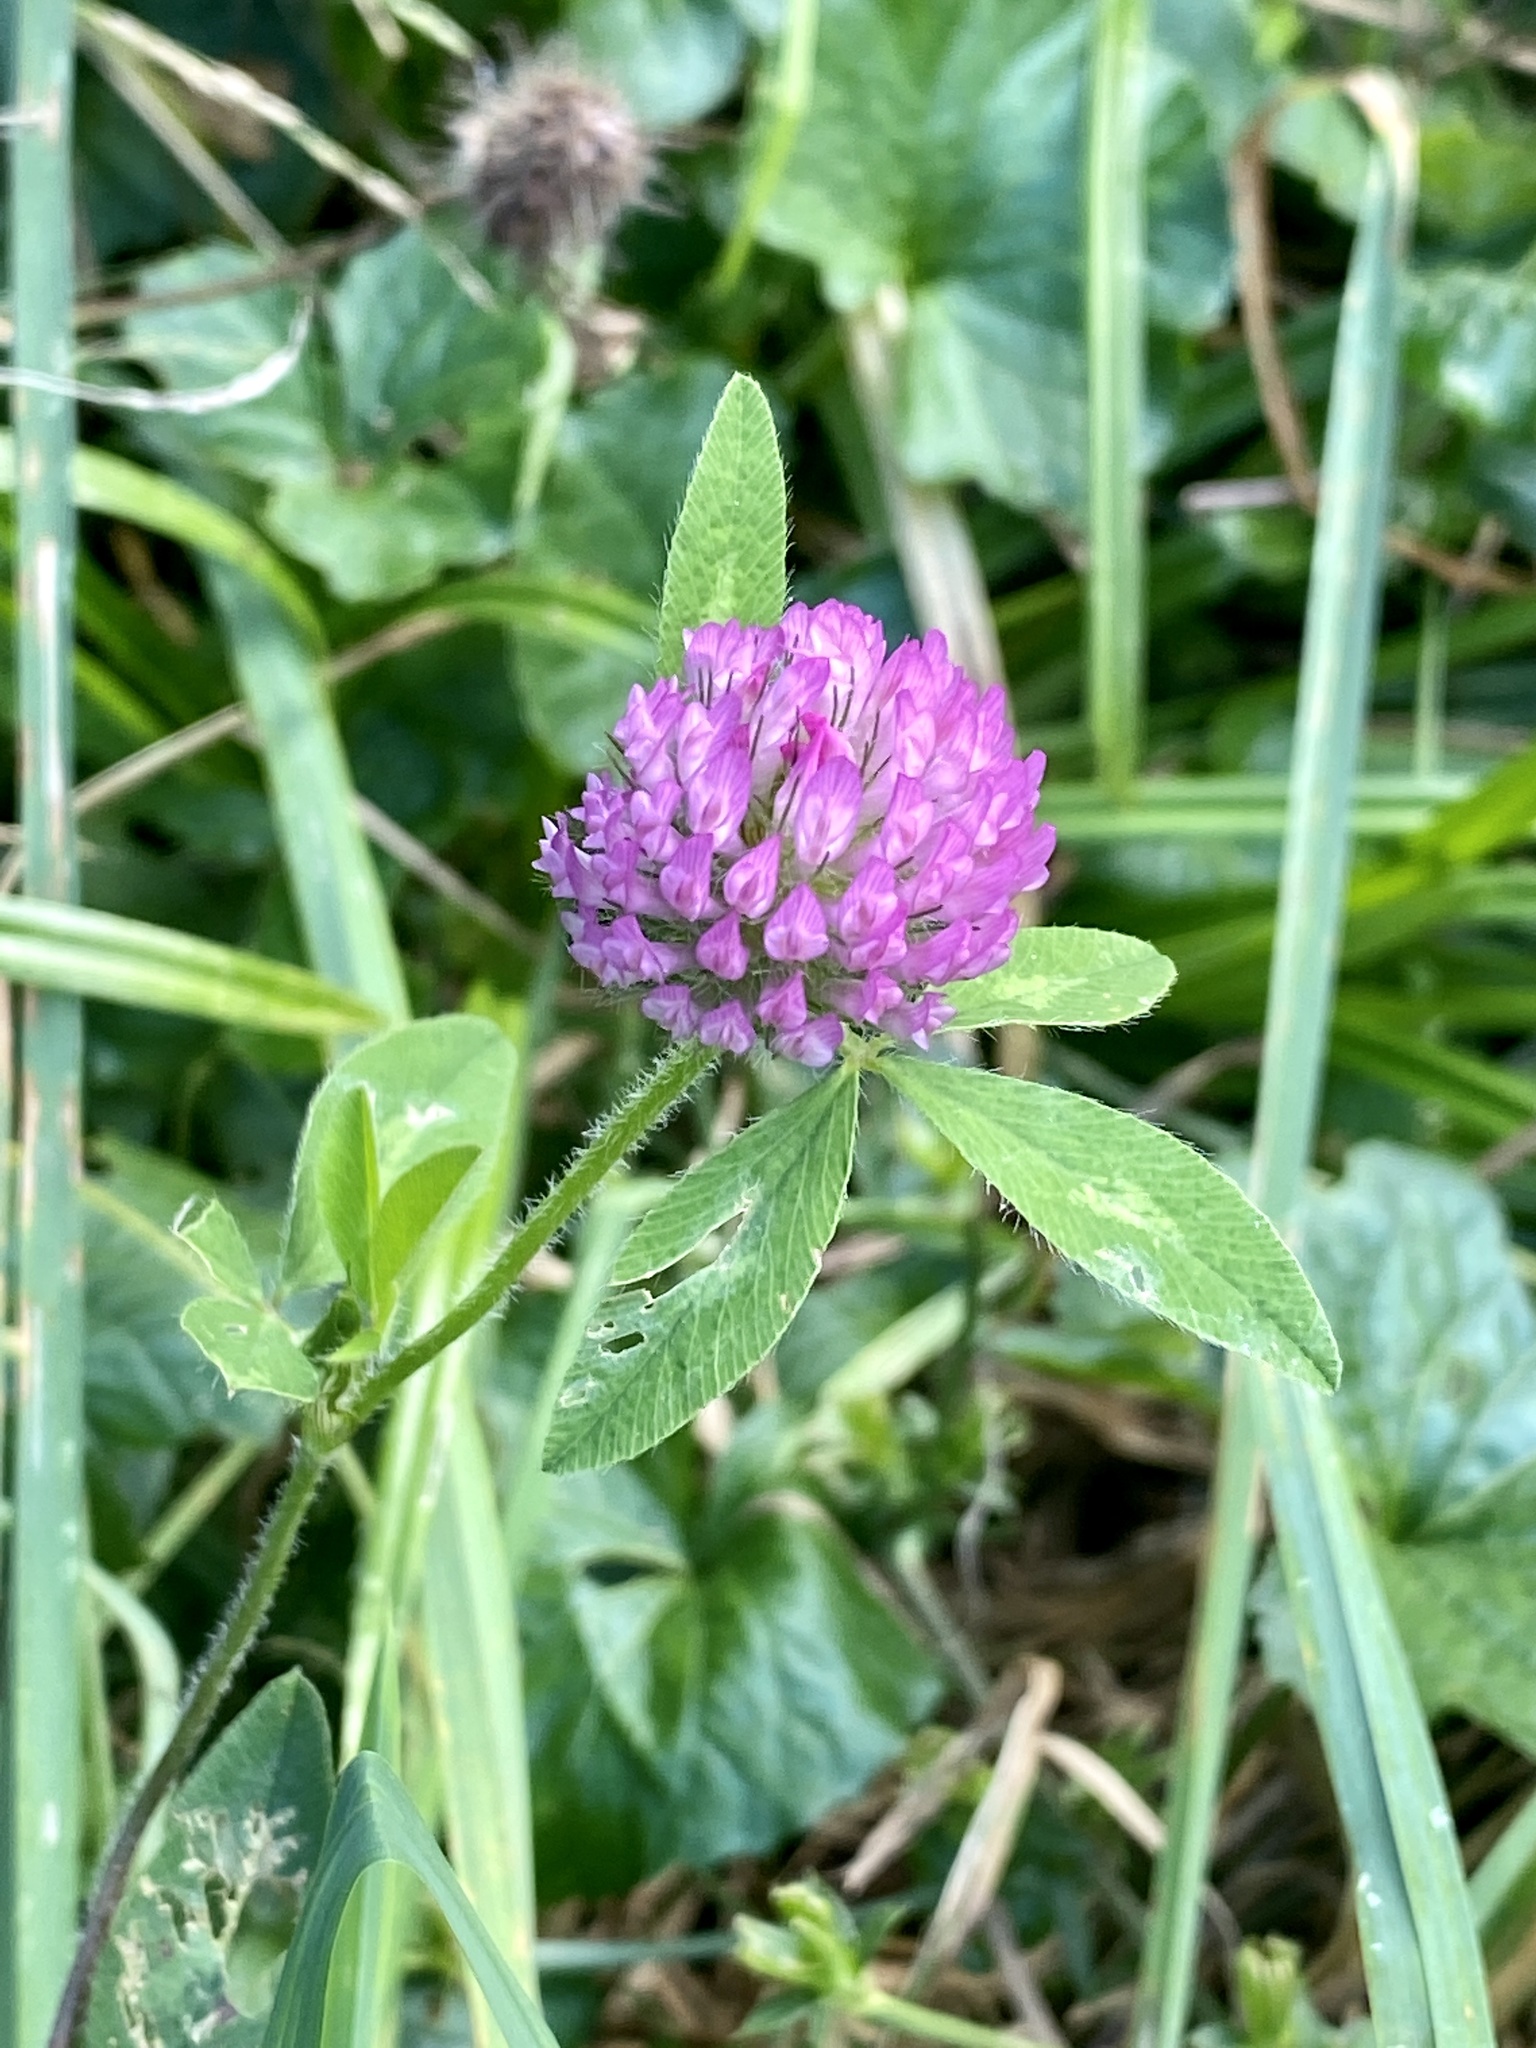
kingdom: Plantae
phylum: Tracheophyta
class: Magnoliopsida
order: Fabales
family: Fabaceae
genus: Trifolium
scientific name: Trifolium pratense
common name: Red clover
